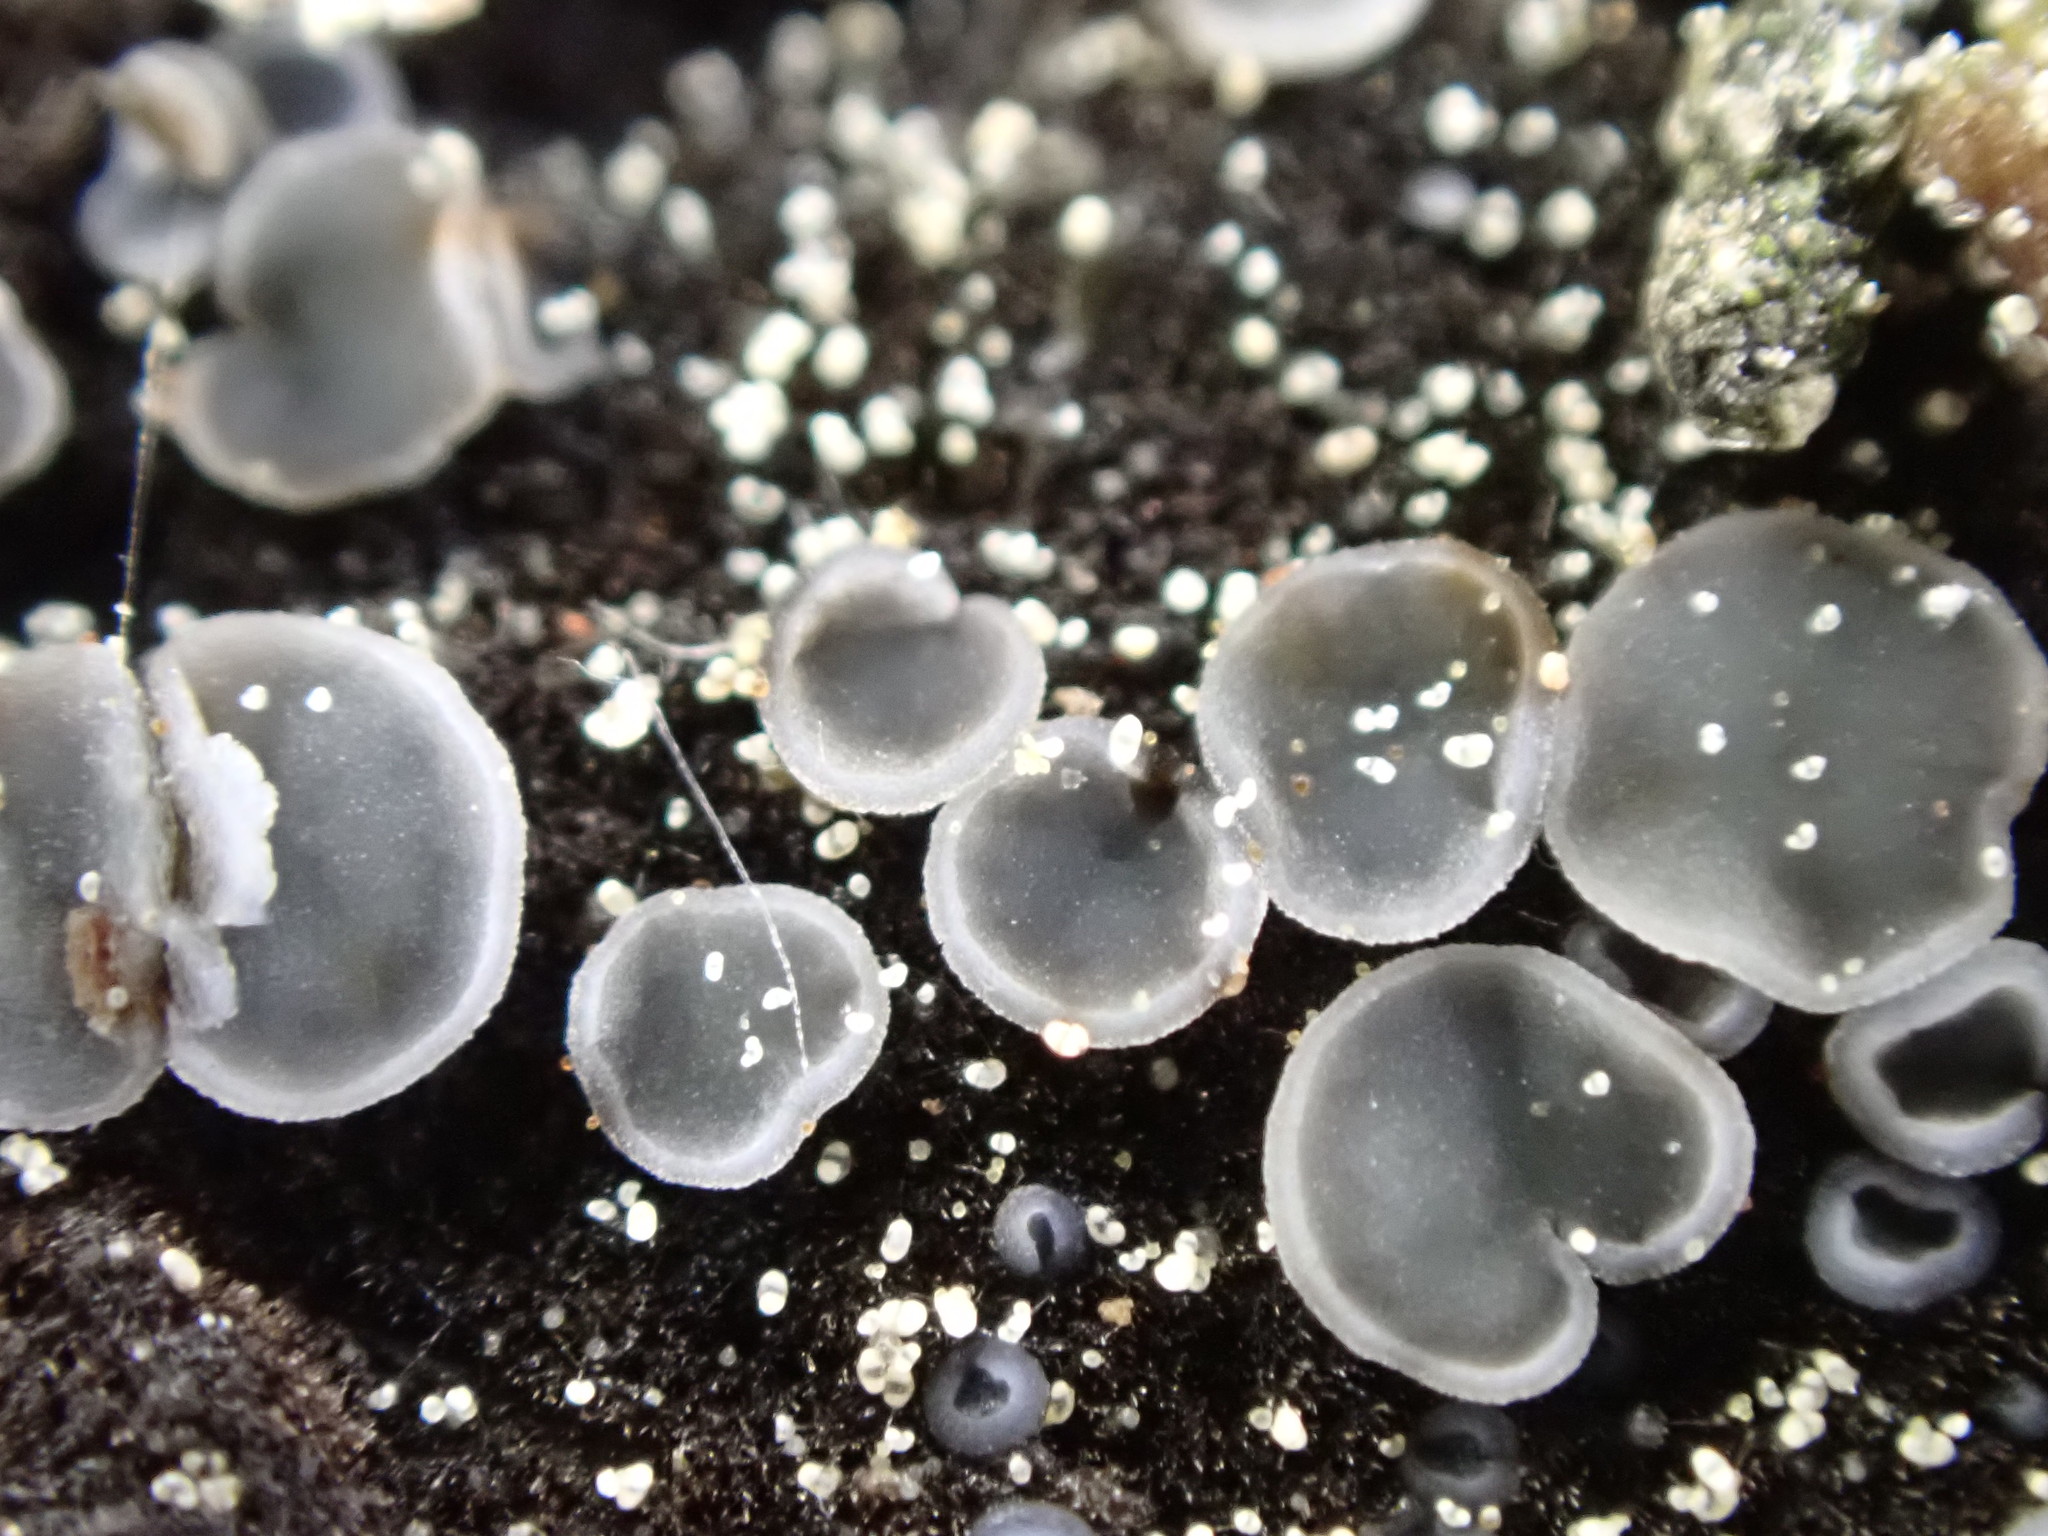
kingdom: Fungi
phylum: Ascomycota
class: Leotiomycetes
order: Helotiales
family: Mollisiaceae
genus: Mollisia
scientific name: Mollisia hydrophila
